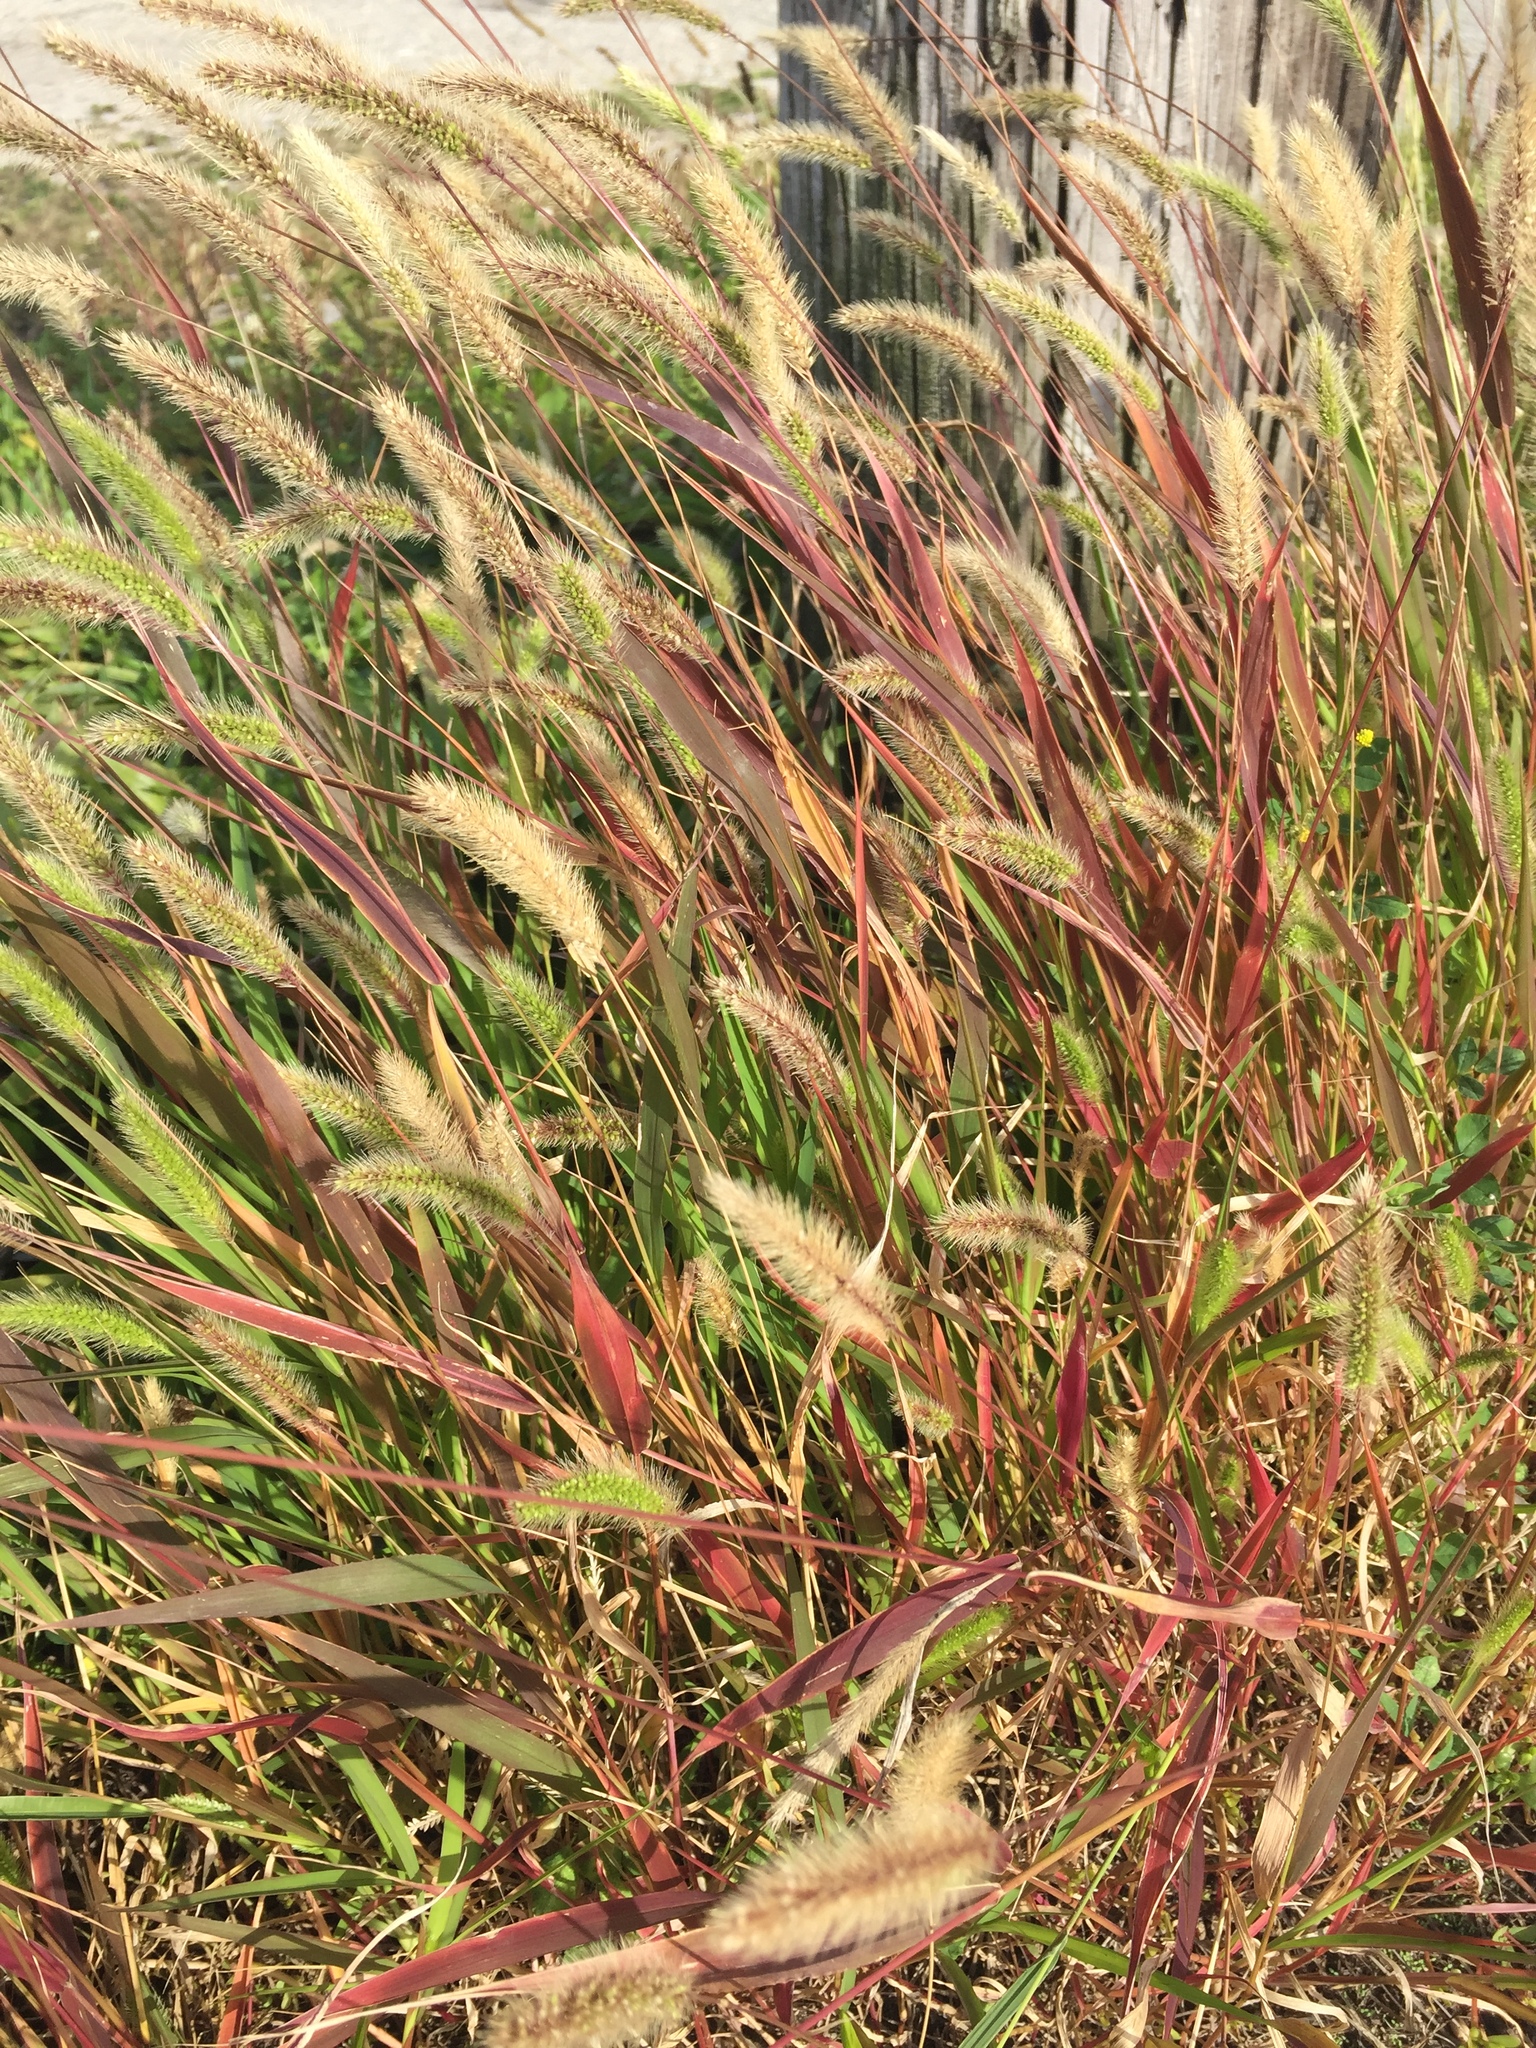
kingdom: Plantae
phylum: Tracheophyta
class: Liliopsida
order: Poales
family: Poaceae
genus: Setaria
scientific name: Setaria viridis
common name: Green bristlegrass
